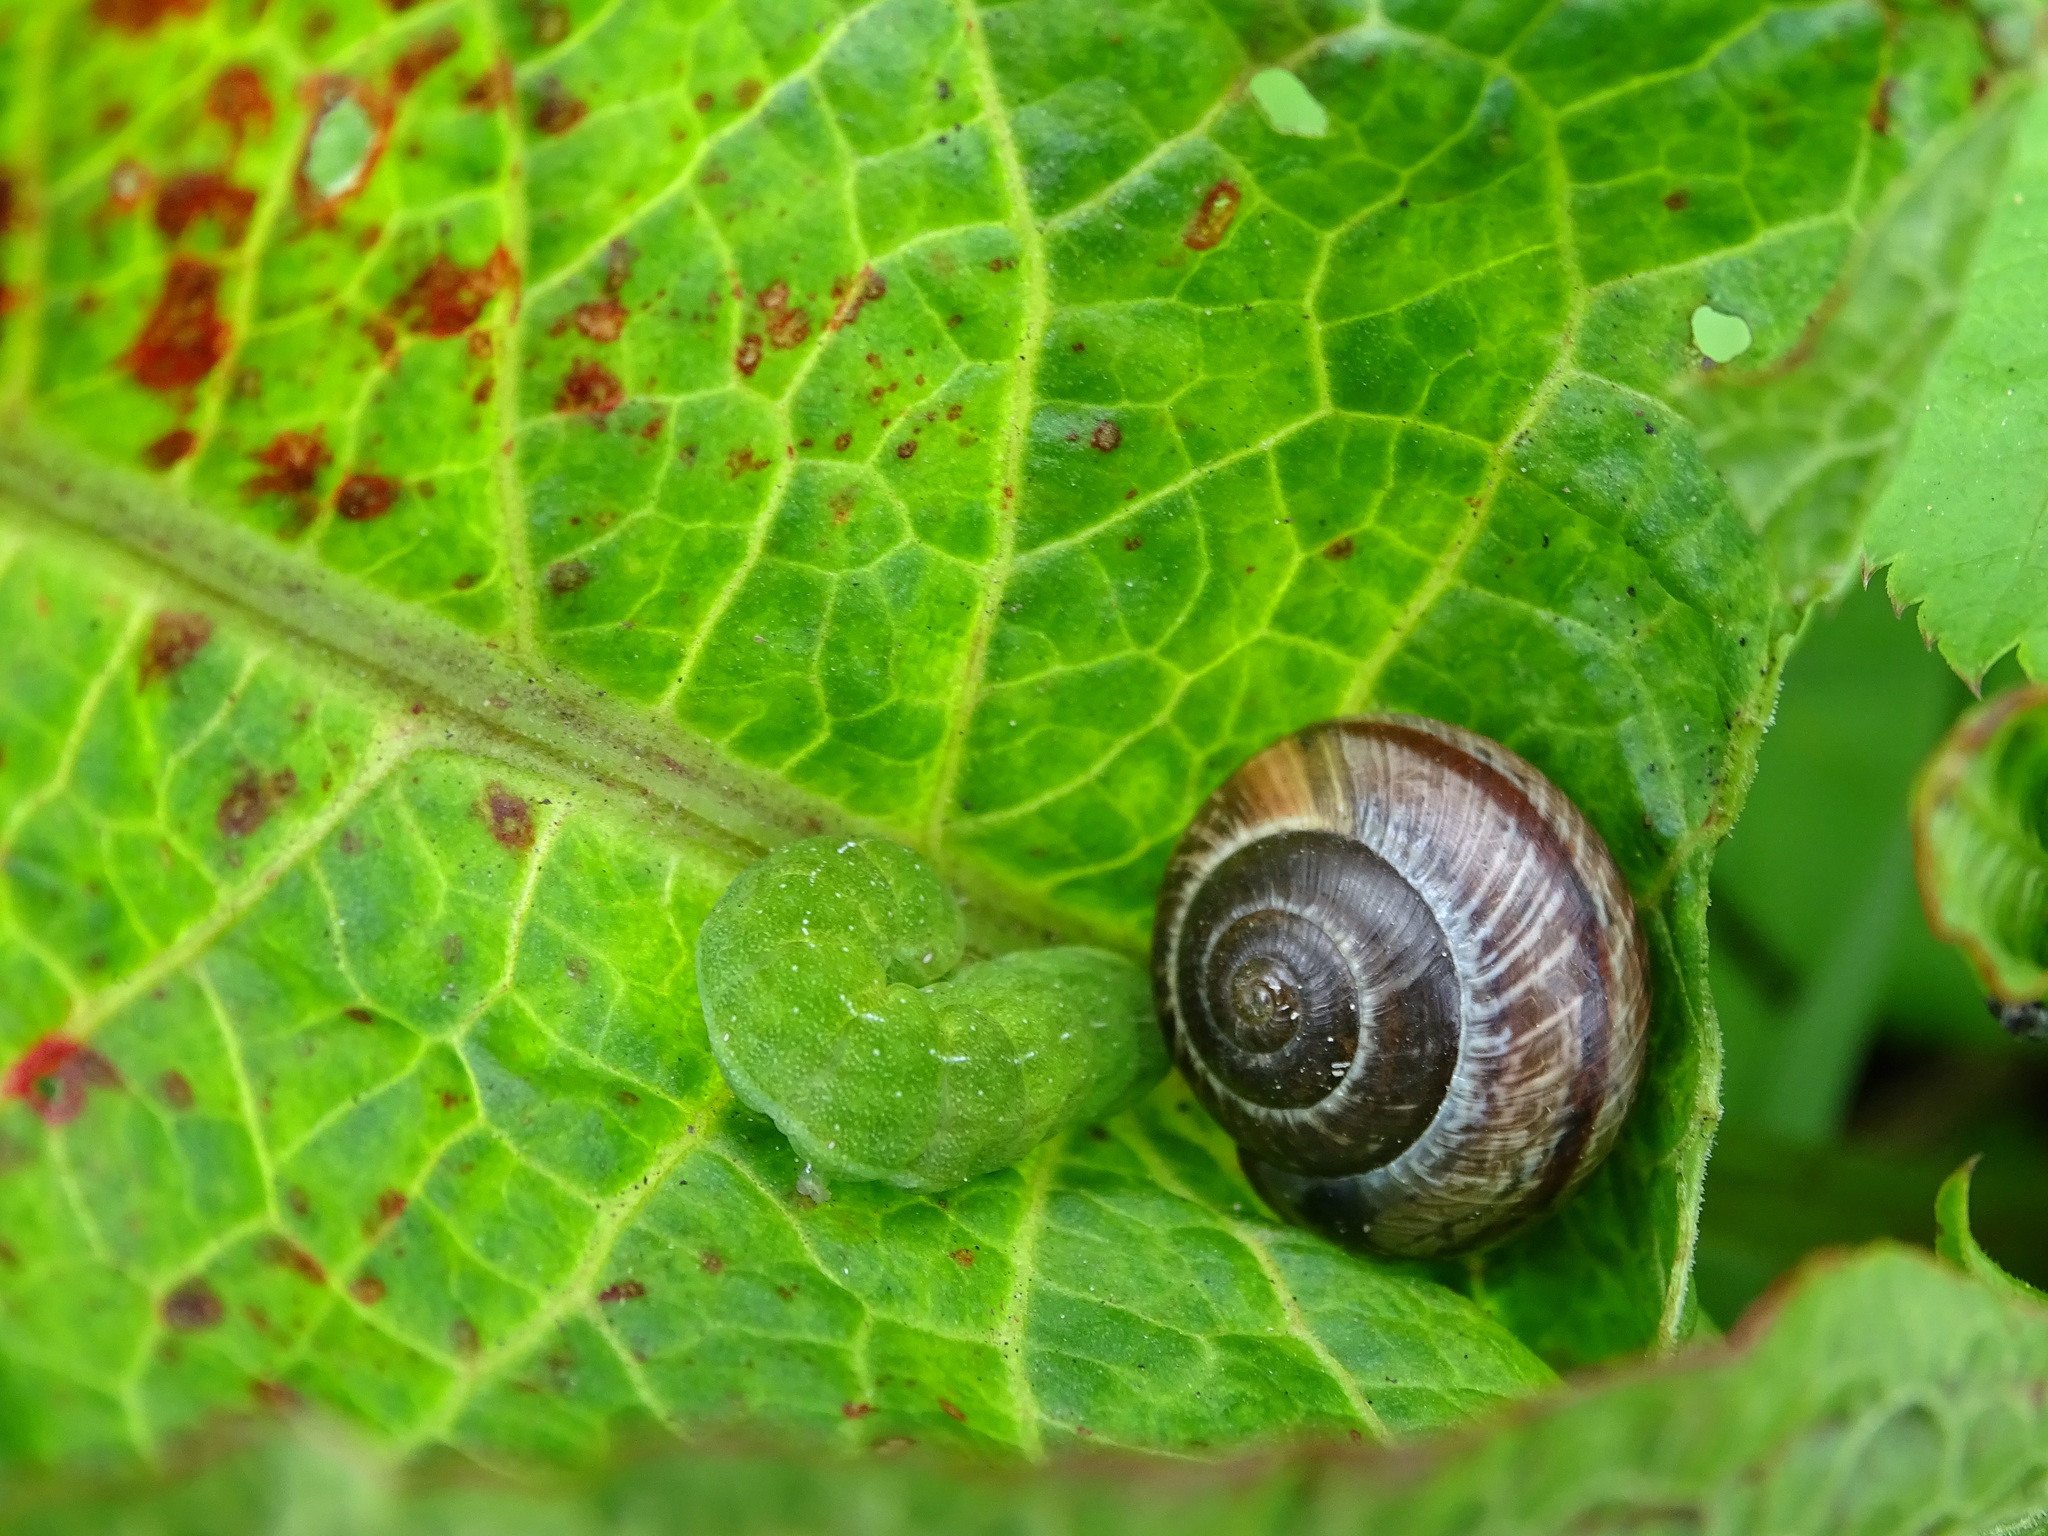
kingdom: Animalia
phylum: Mollusca
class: Gastropoda
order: Stylommatophora
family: Helicidae
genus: Arianta
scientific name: Arianta arbustorum
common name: Copse snail
